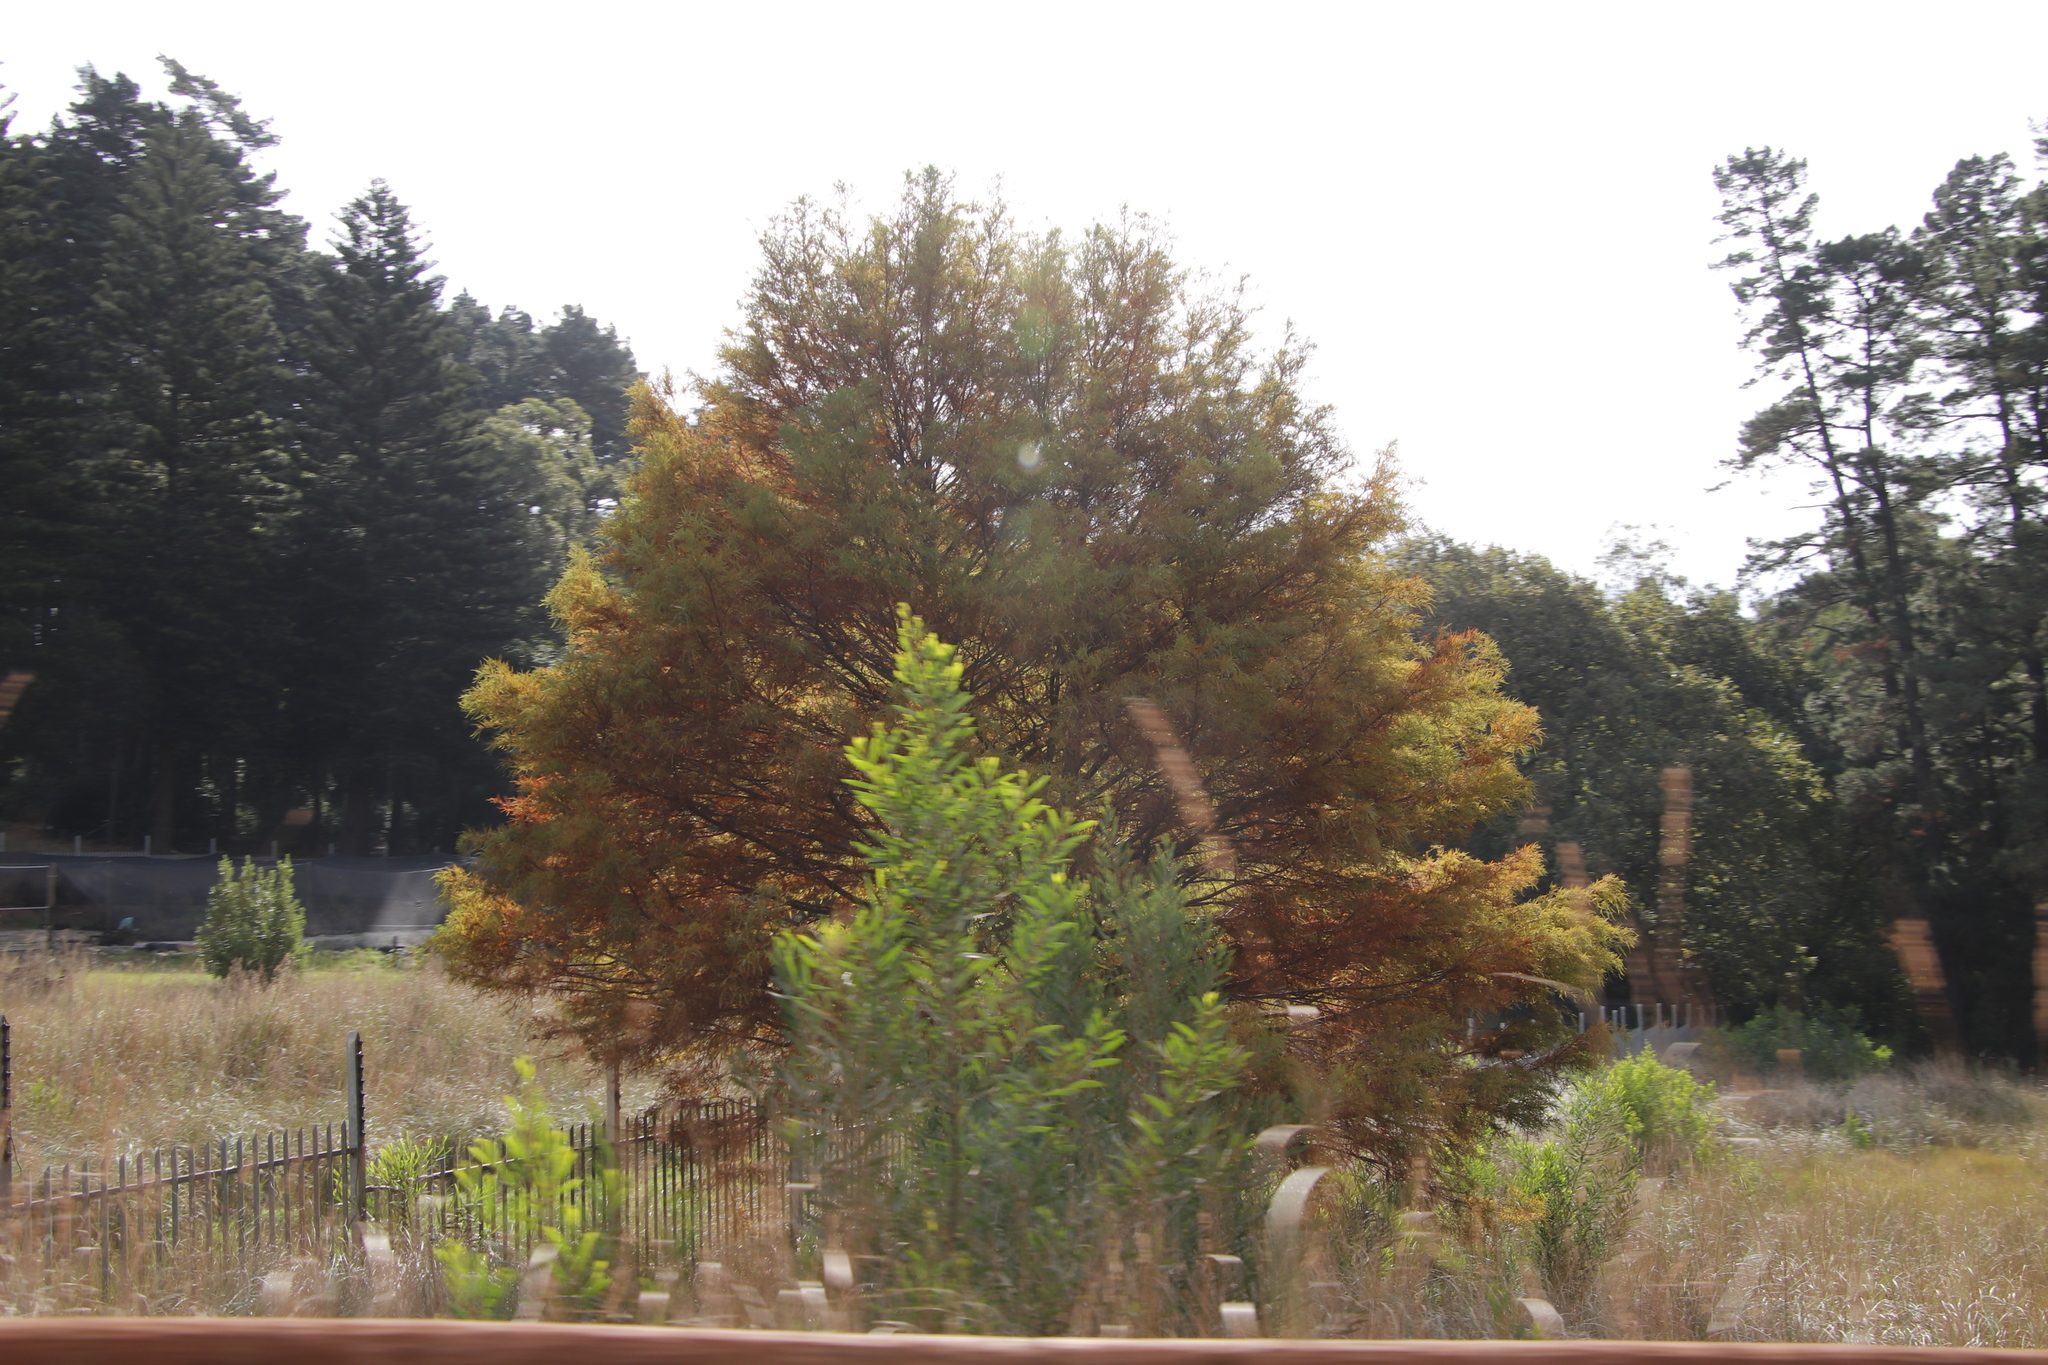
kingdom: Plantae
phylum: Tracheophyta
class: Pinopsida
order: Pinales
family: Cupressaceae
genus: Taxodium
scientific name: Taxodium distichum
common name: Bald cypress
